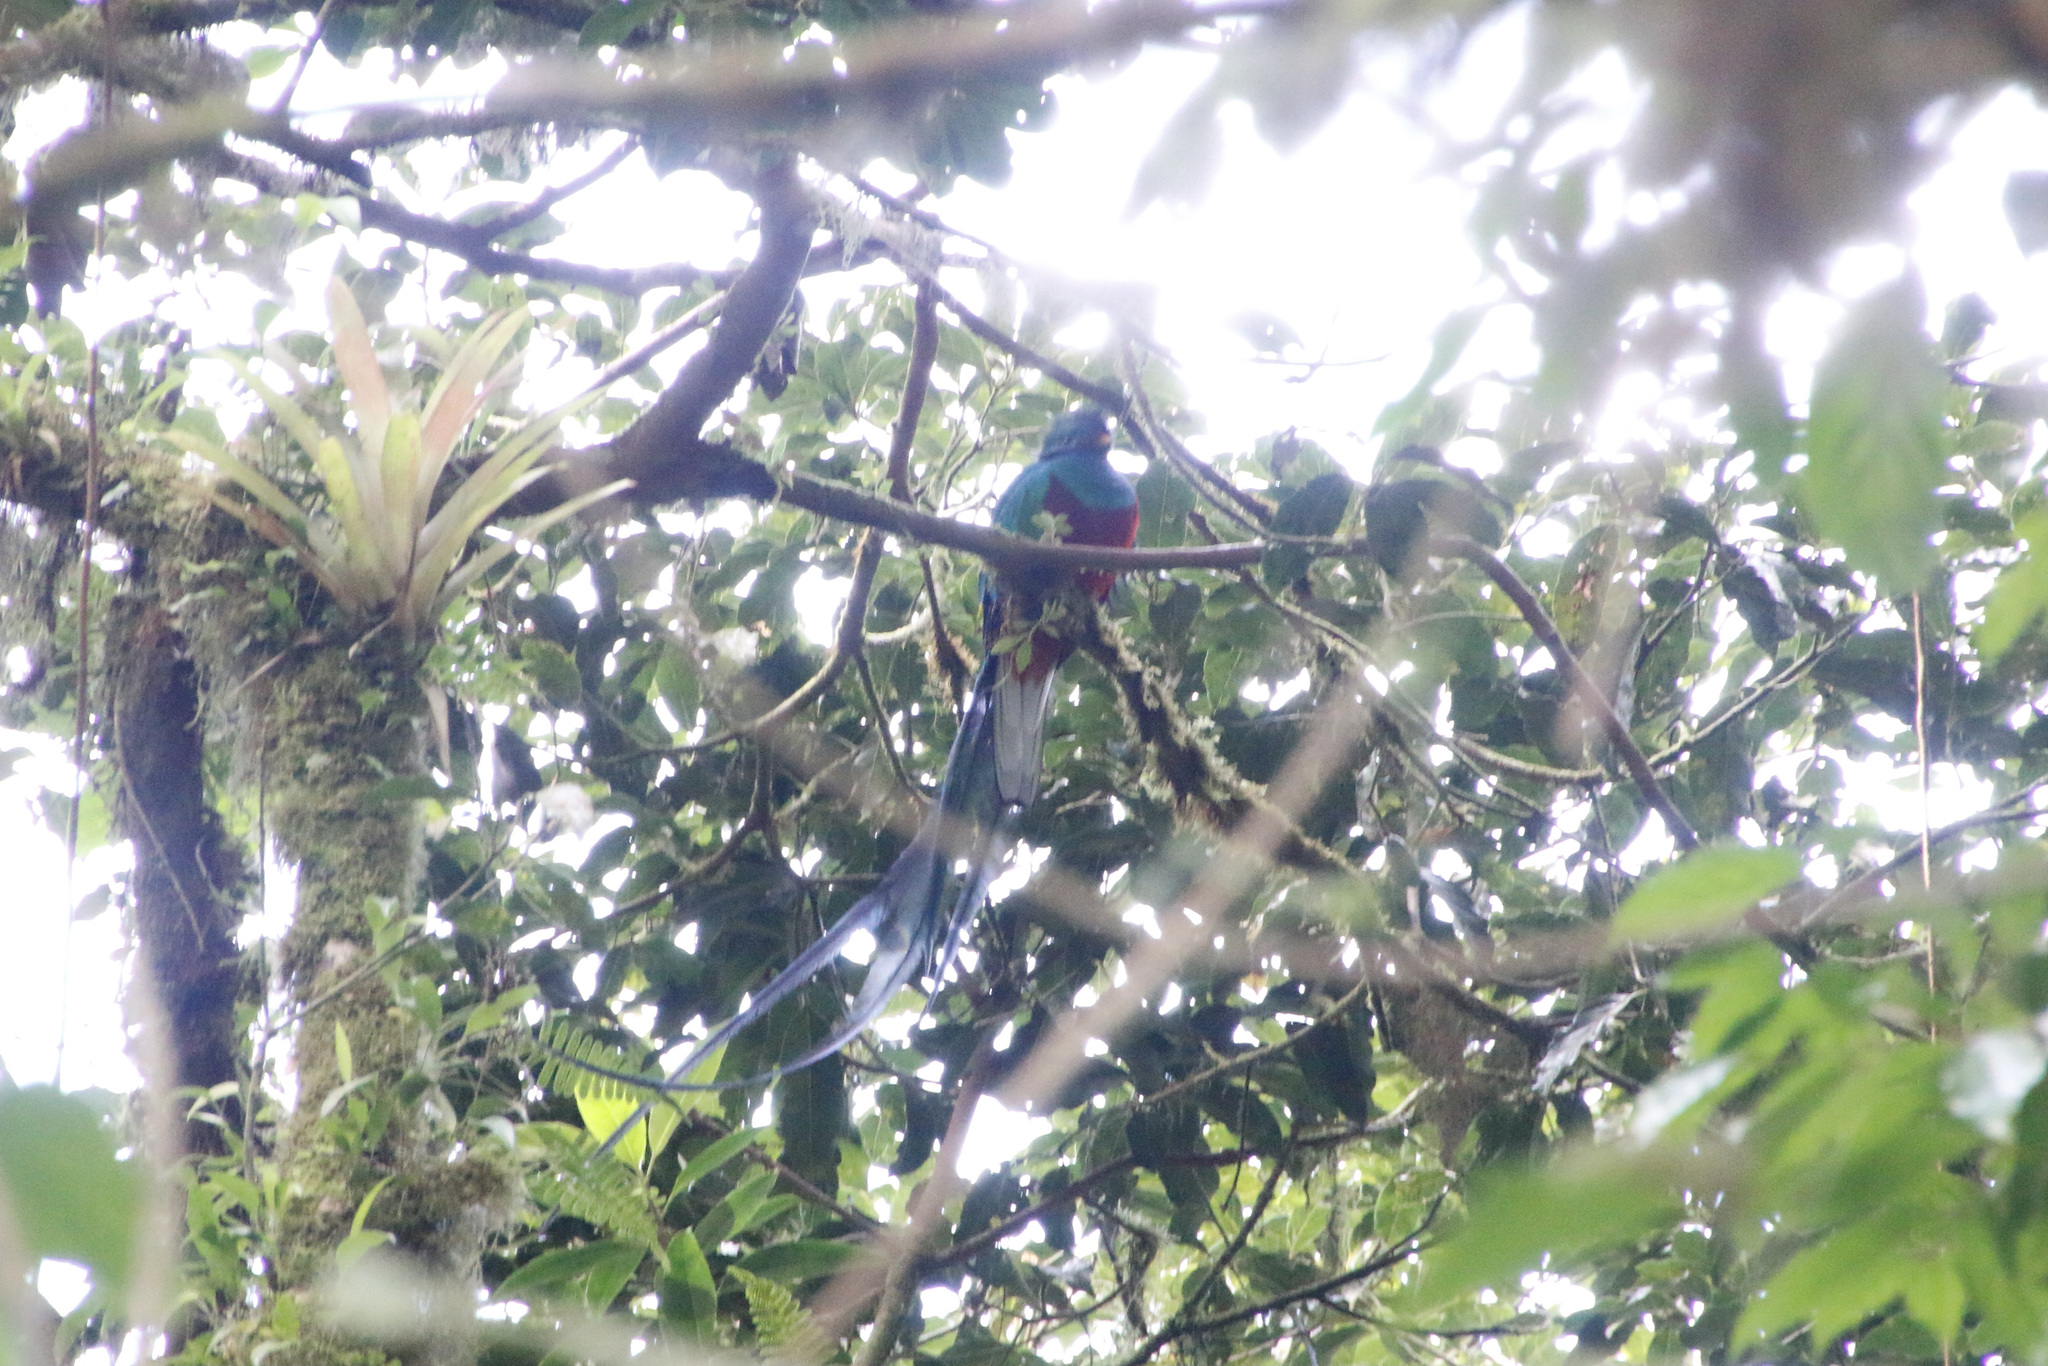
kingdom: Animalia
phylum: Chordata
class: Aves
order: Trogoniformes
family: Trogonidae
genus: Pharomachrus
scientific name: Pharomachrus mocinno
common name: Resplendent quetzal
